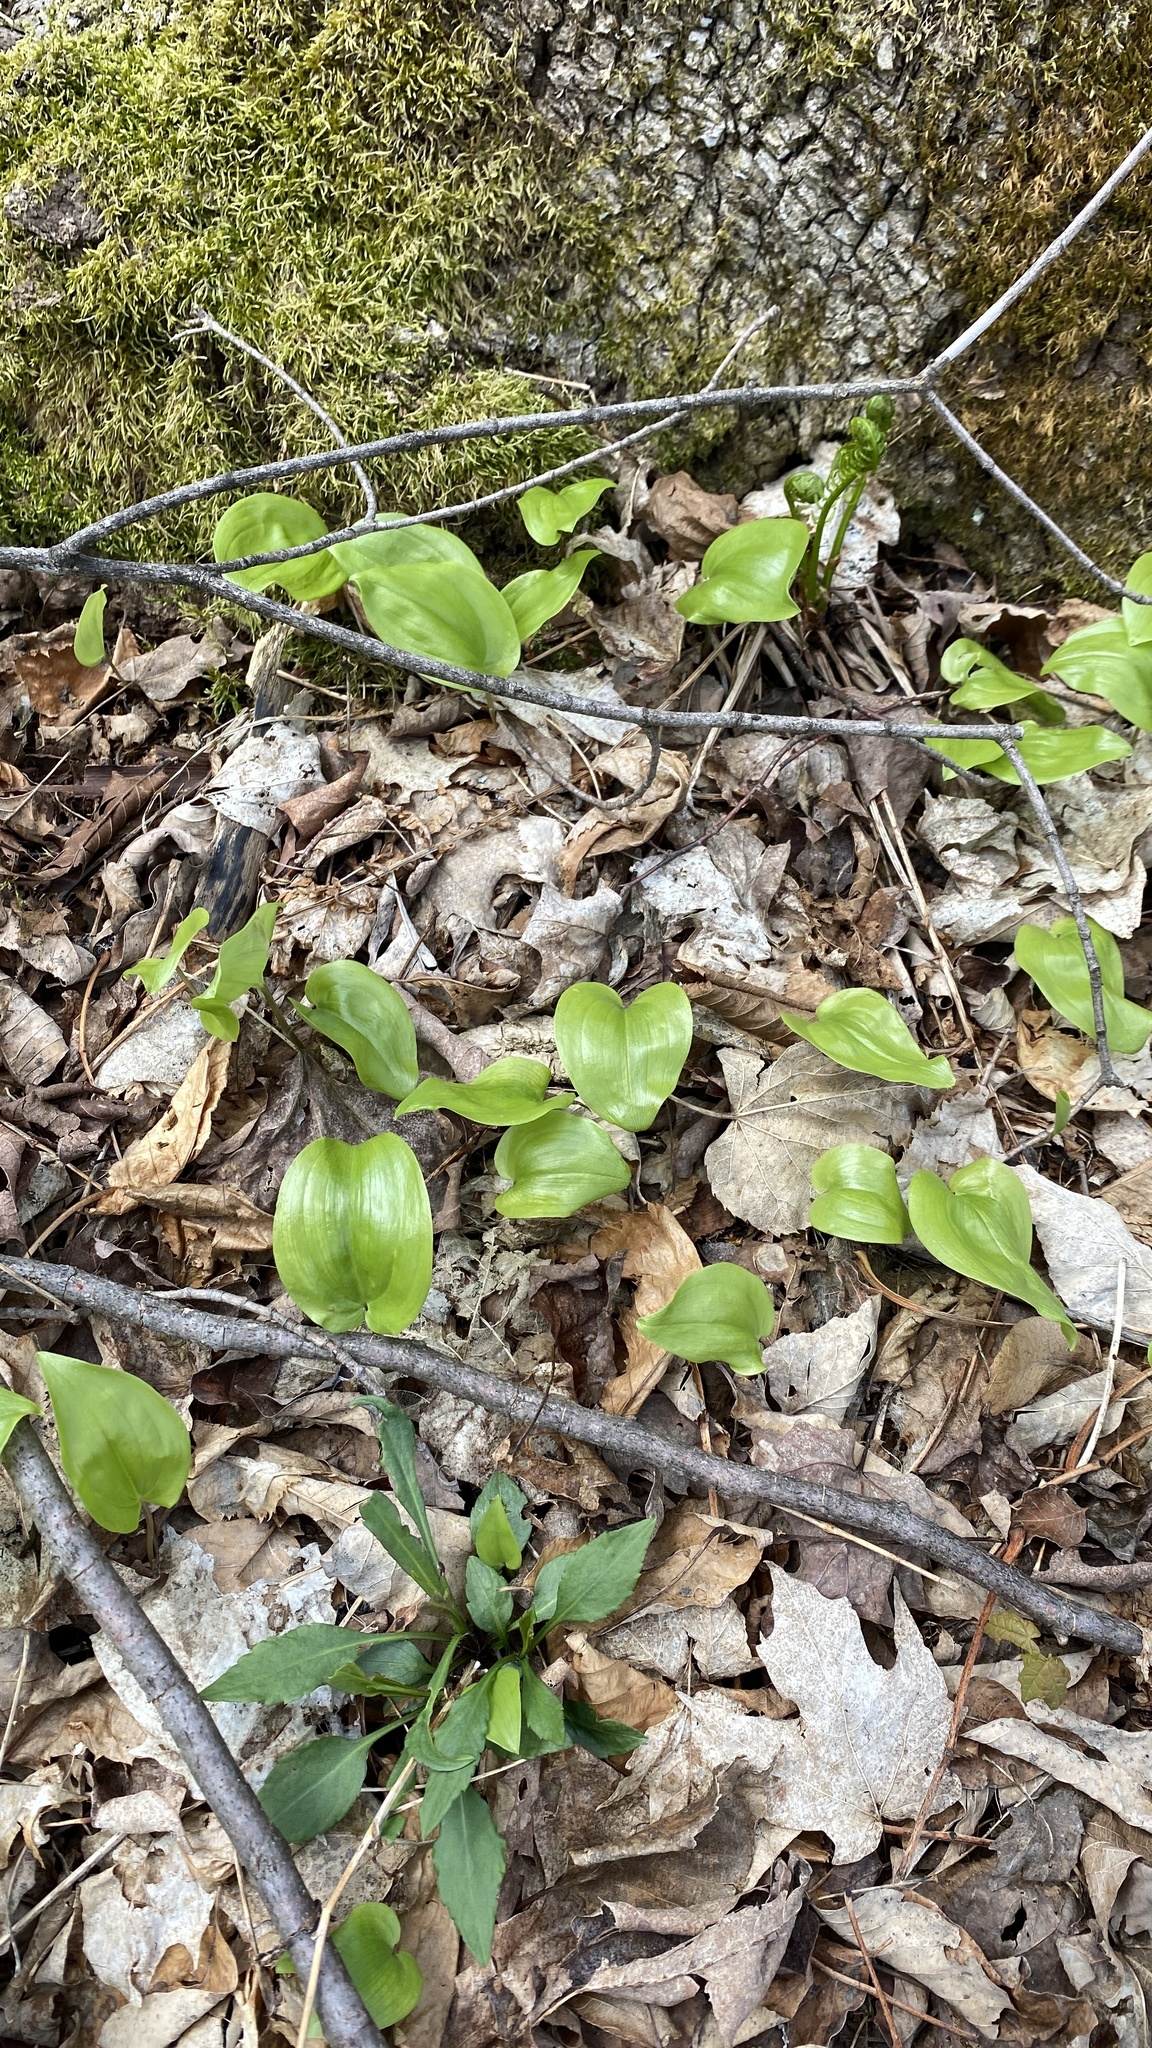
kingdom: Plantae
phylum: Tracheophyta
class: Liliopsida
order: Asparagales
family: Asparagaceae
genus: Maianthemum
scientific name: Maianthemum canadense
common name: False lily-of-the-valley
